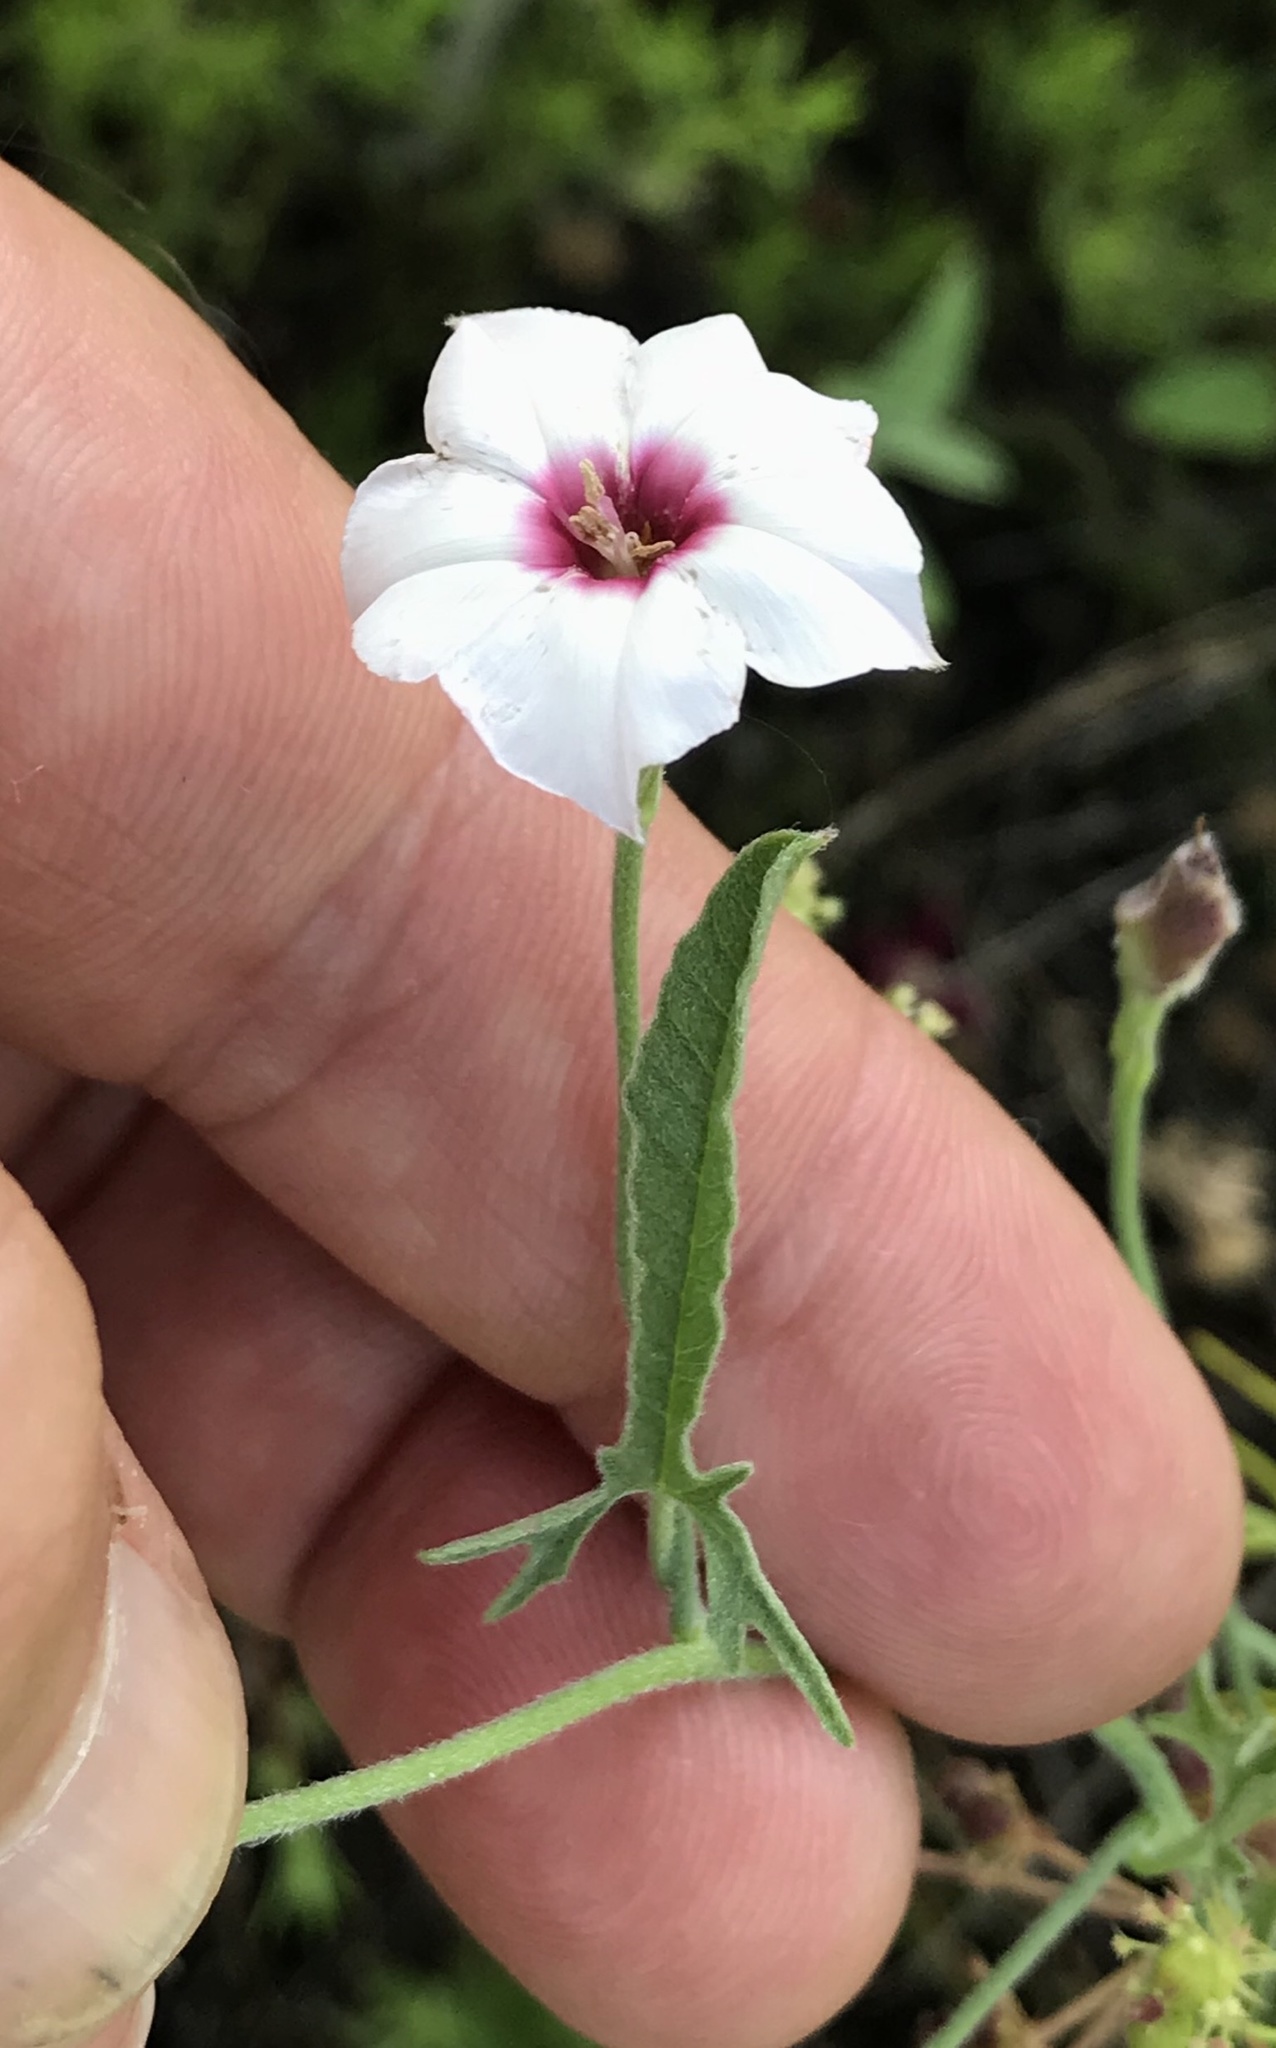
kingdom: Plantae
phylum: Tracheophyta
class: Magnoliopsida
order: Solanales
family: Convolvulaceae
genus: Convolvulus
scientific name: Convolvulus equitans
